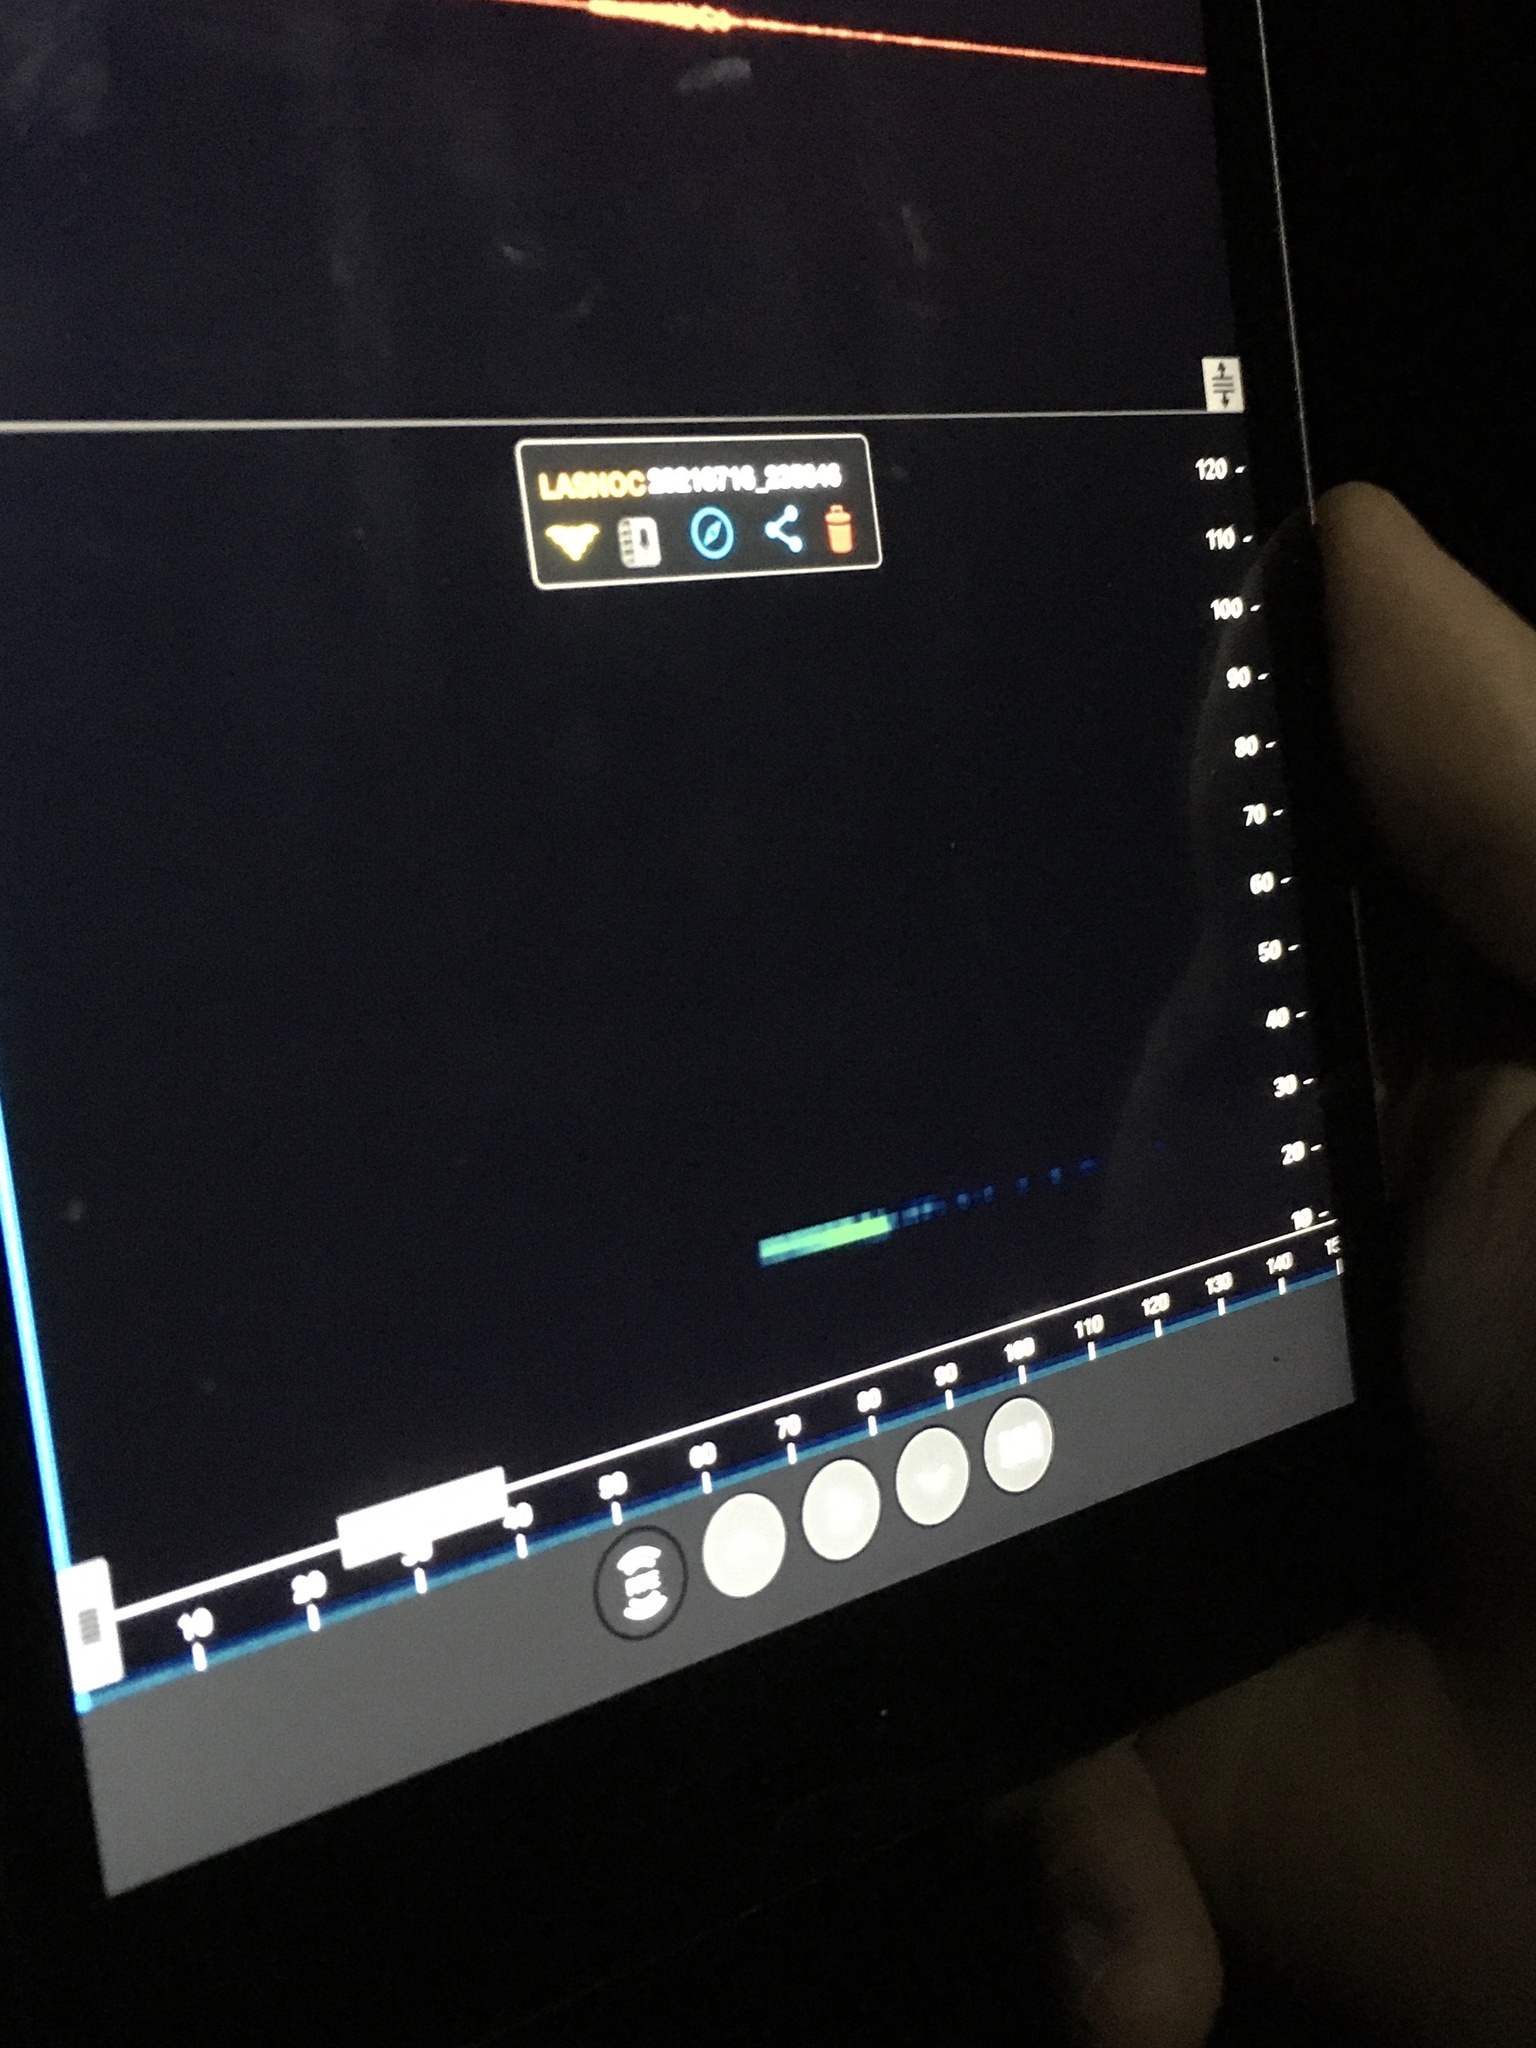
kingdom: Animalia
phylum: Chordata
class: Mammalia
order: Chiroptera
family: Vespertilionidae
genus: Lasionycteris
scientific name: Lasionycteris noctivagans
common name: Silver-haired bat
